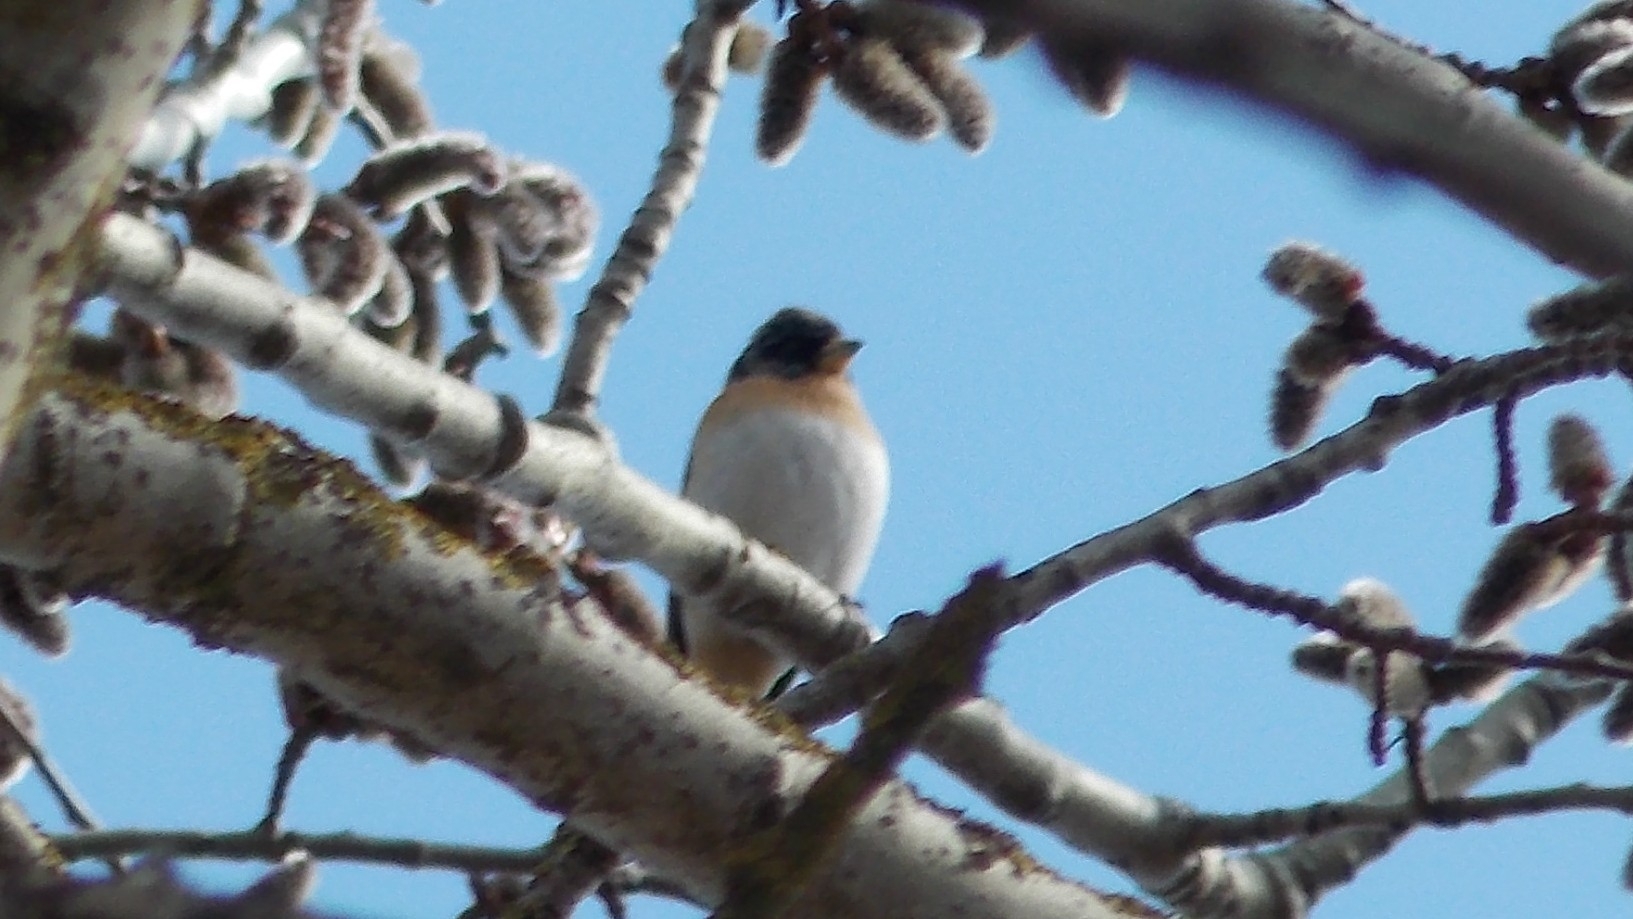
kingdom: Animalia
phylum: Chordata
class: Aves
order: Passeriformes
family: Fringillidae
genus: Fringilla
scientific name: Fringilla montifringilla
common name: Brambling
